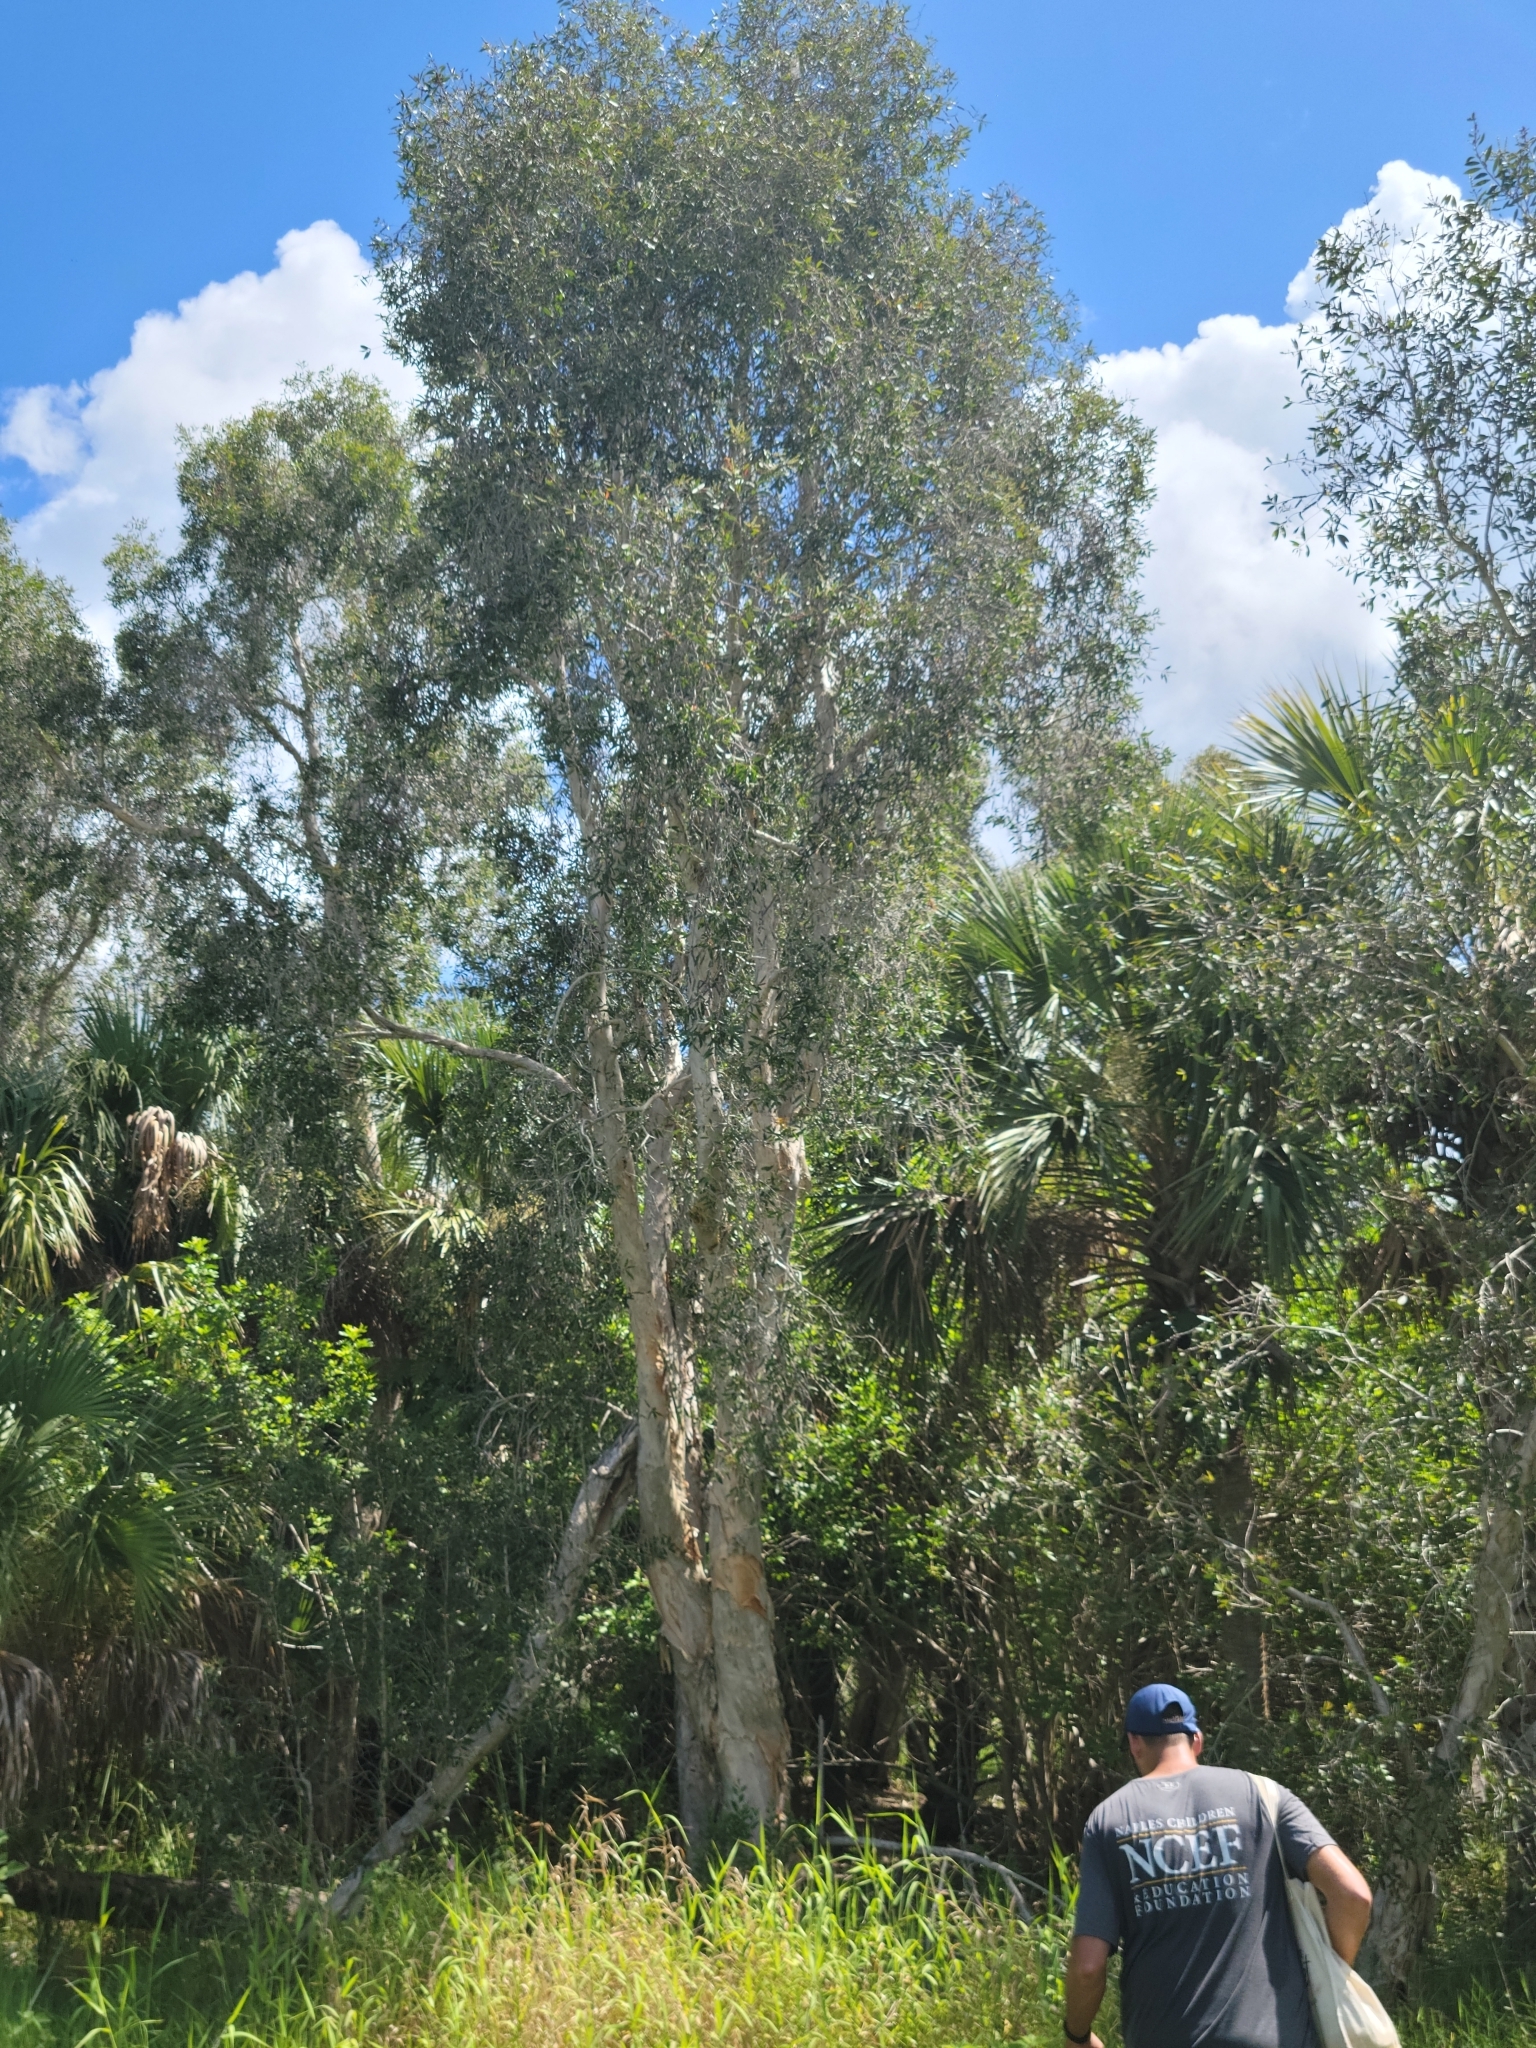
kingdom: Plantae
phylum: Tracheophyta
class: Magnoliopsida
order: Myrtales
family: Myrtaceae
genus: Melaleuca
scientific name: Melaleuca quinquenervia
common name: Punktree
